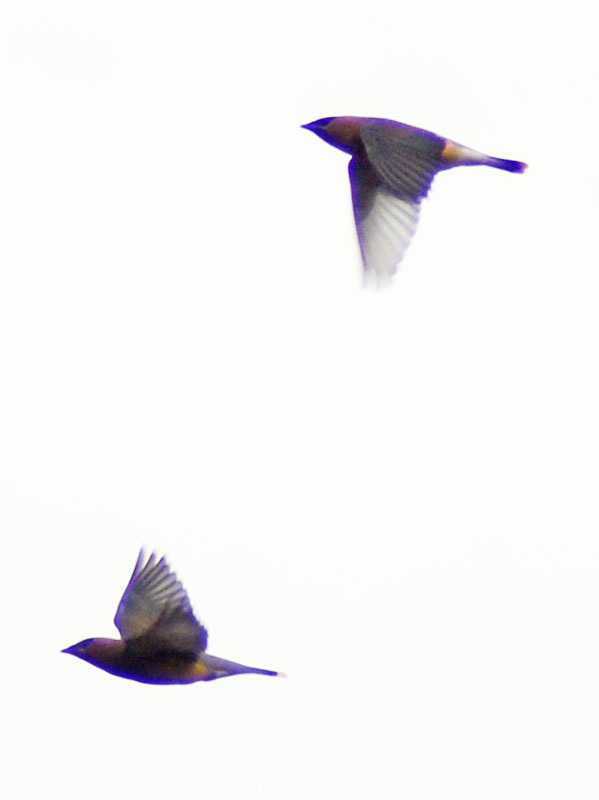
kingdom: Animalia
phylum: Chordata
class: Aves
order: Passeriformes
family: Bombycillidae
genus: Bombycilla
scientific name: Bombycilla cedrorum
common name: Cedar waxwing
